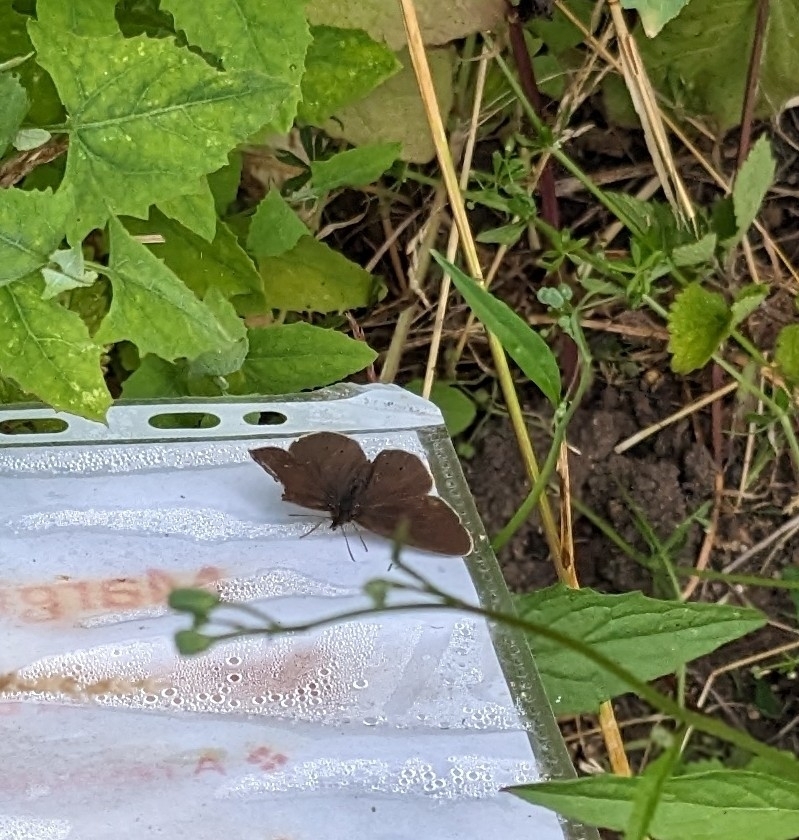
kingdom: Animalia
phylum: Arthropoda
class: Insecta
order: Lepidoptera
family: Nymphalidae
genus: Aphantopus
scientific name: Aphantopus hyperantus
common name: Ringlet
